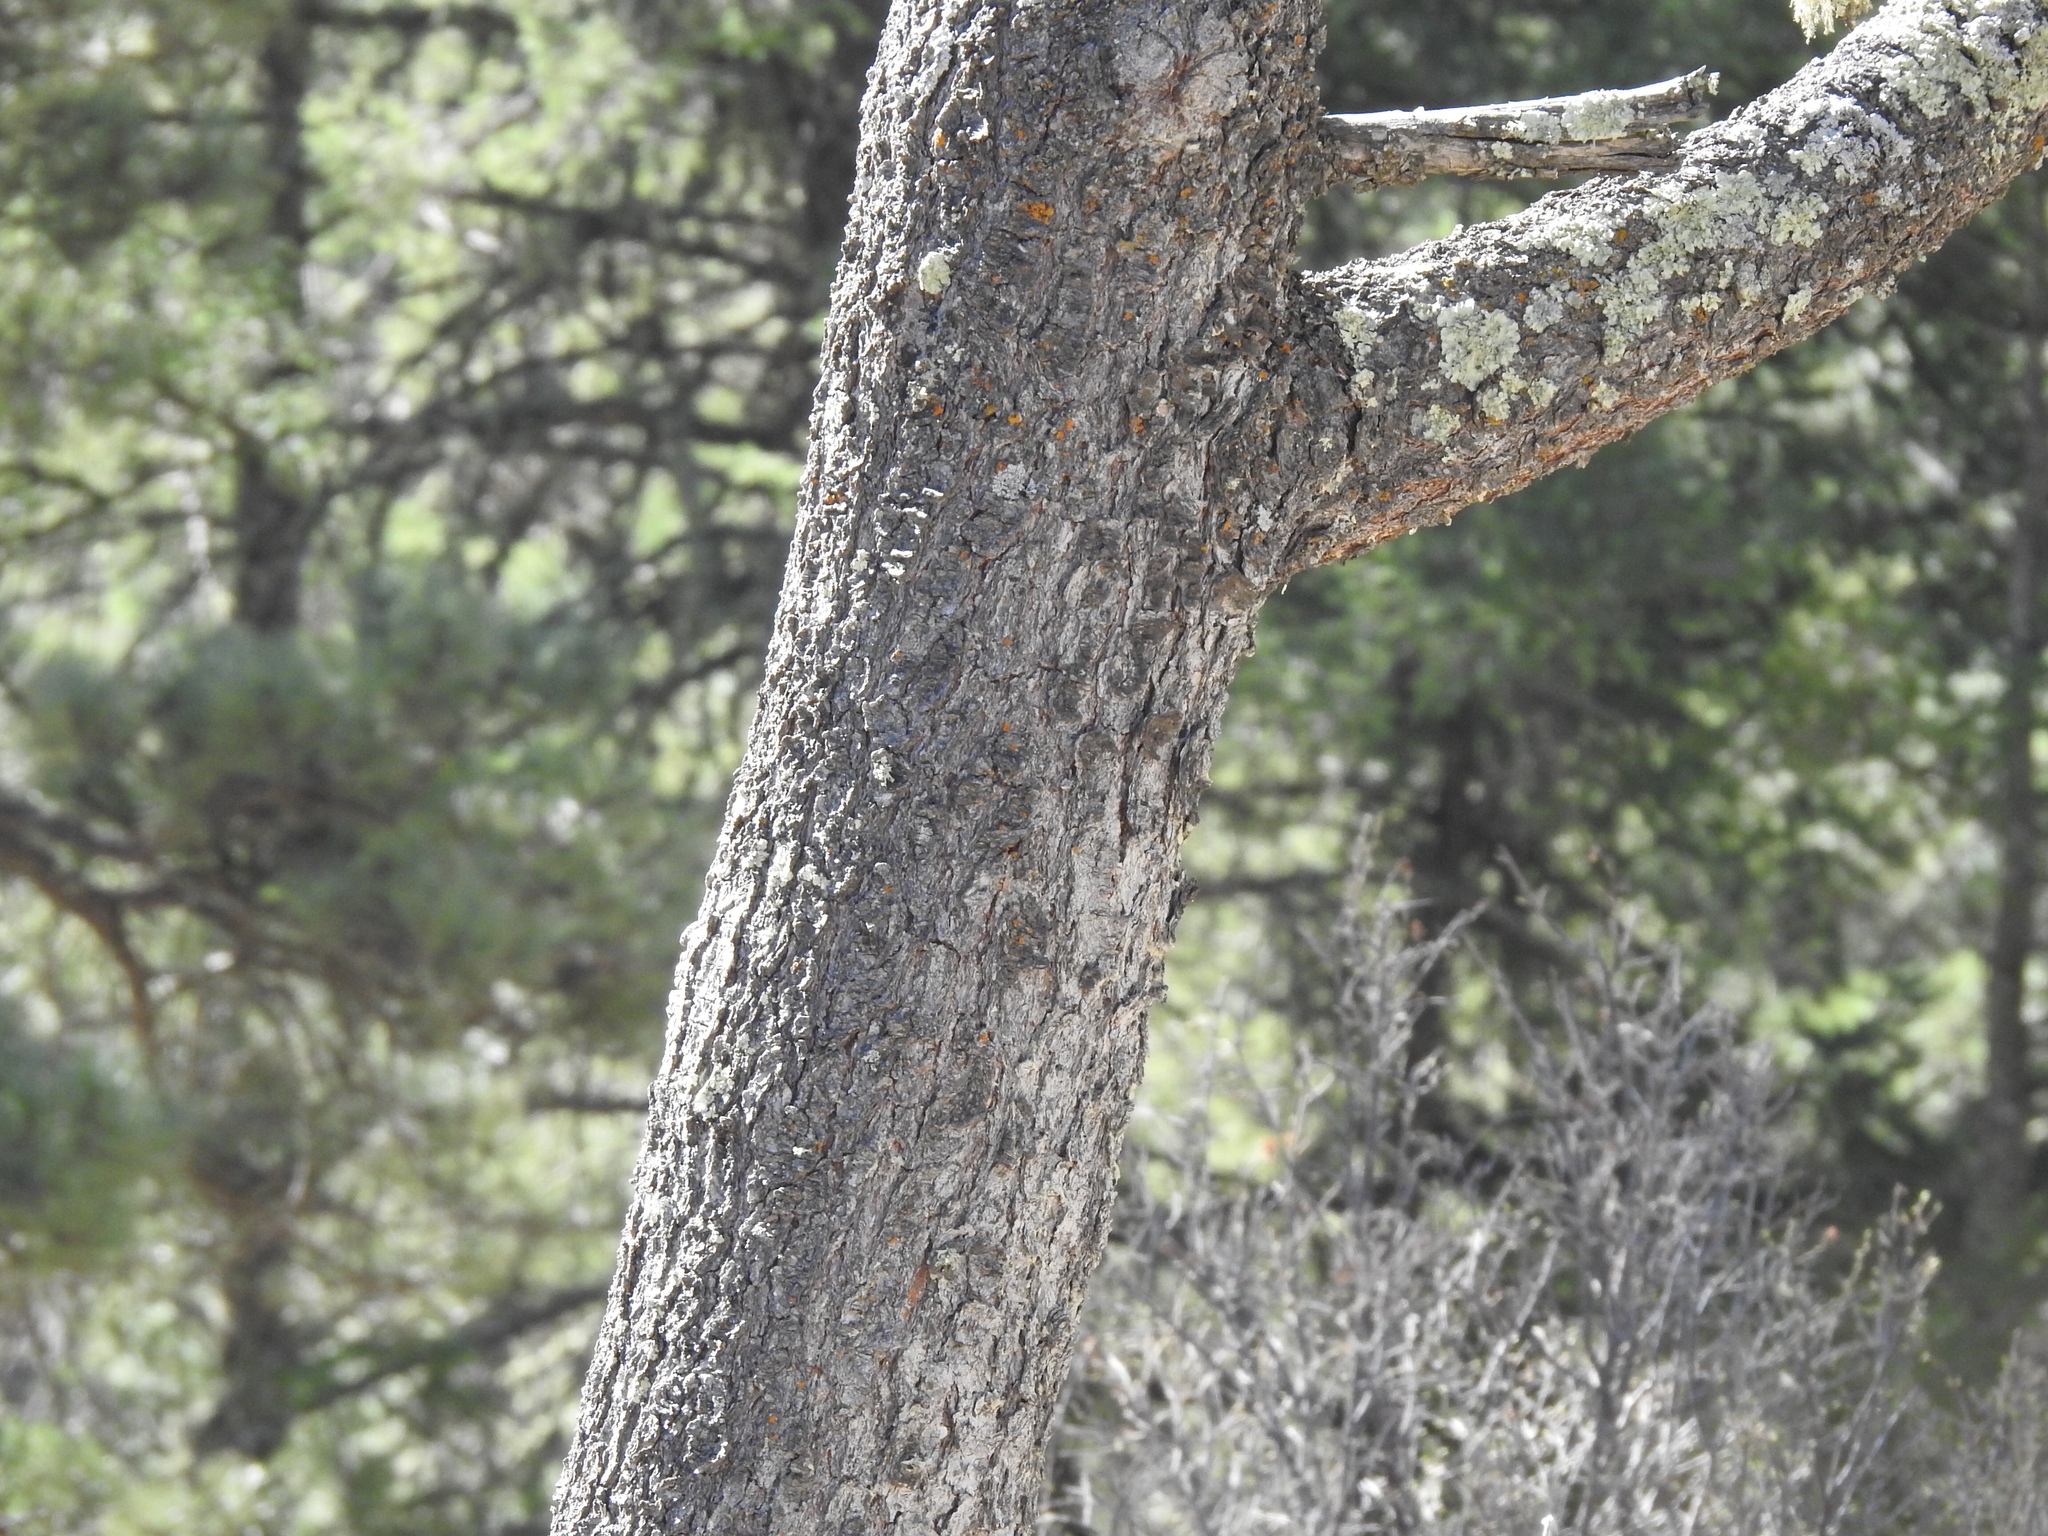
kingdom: Plantae
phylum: Tracheophyta
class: Pinopsida
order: Pinales
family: Pinaceae
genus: Pinus
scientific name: Pinus strobiformis
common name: Southwestern white pine
